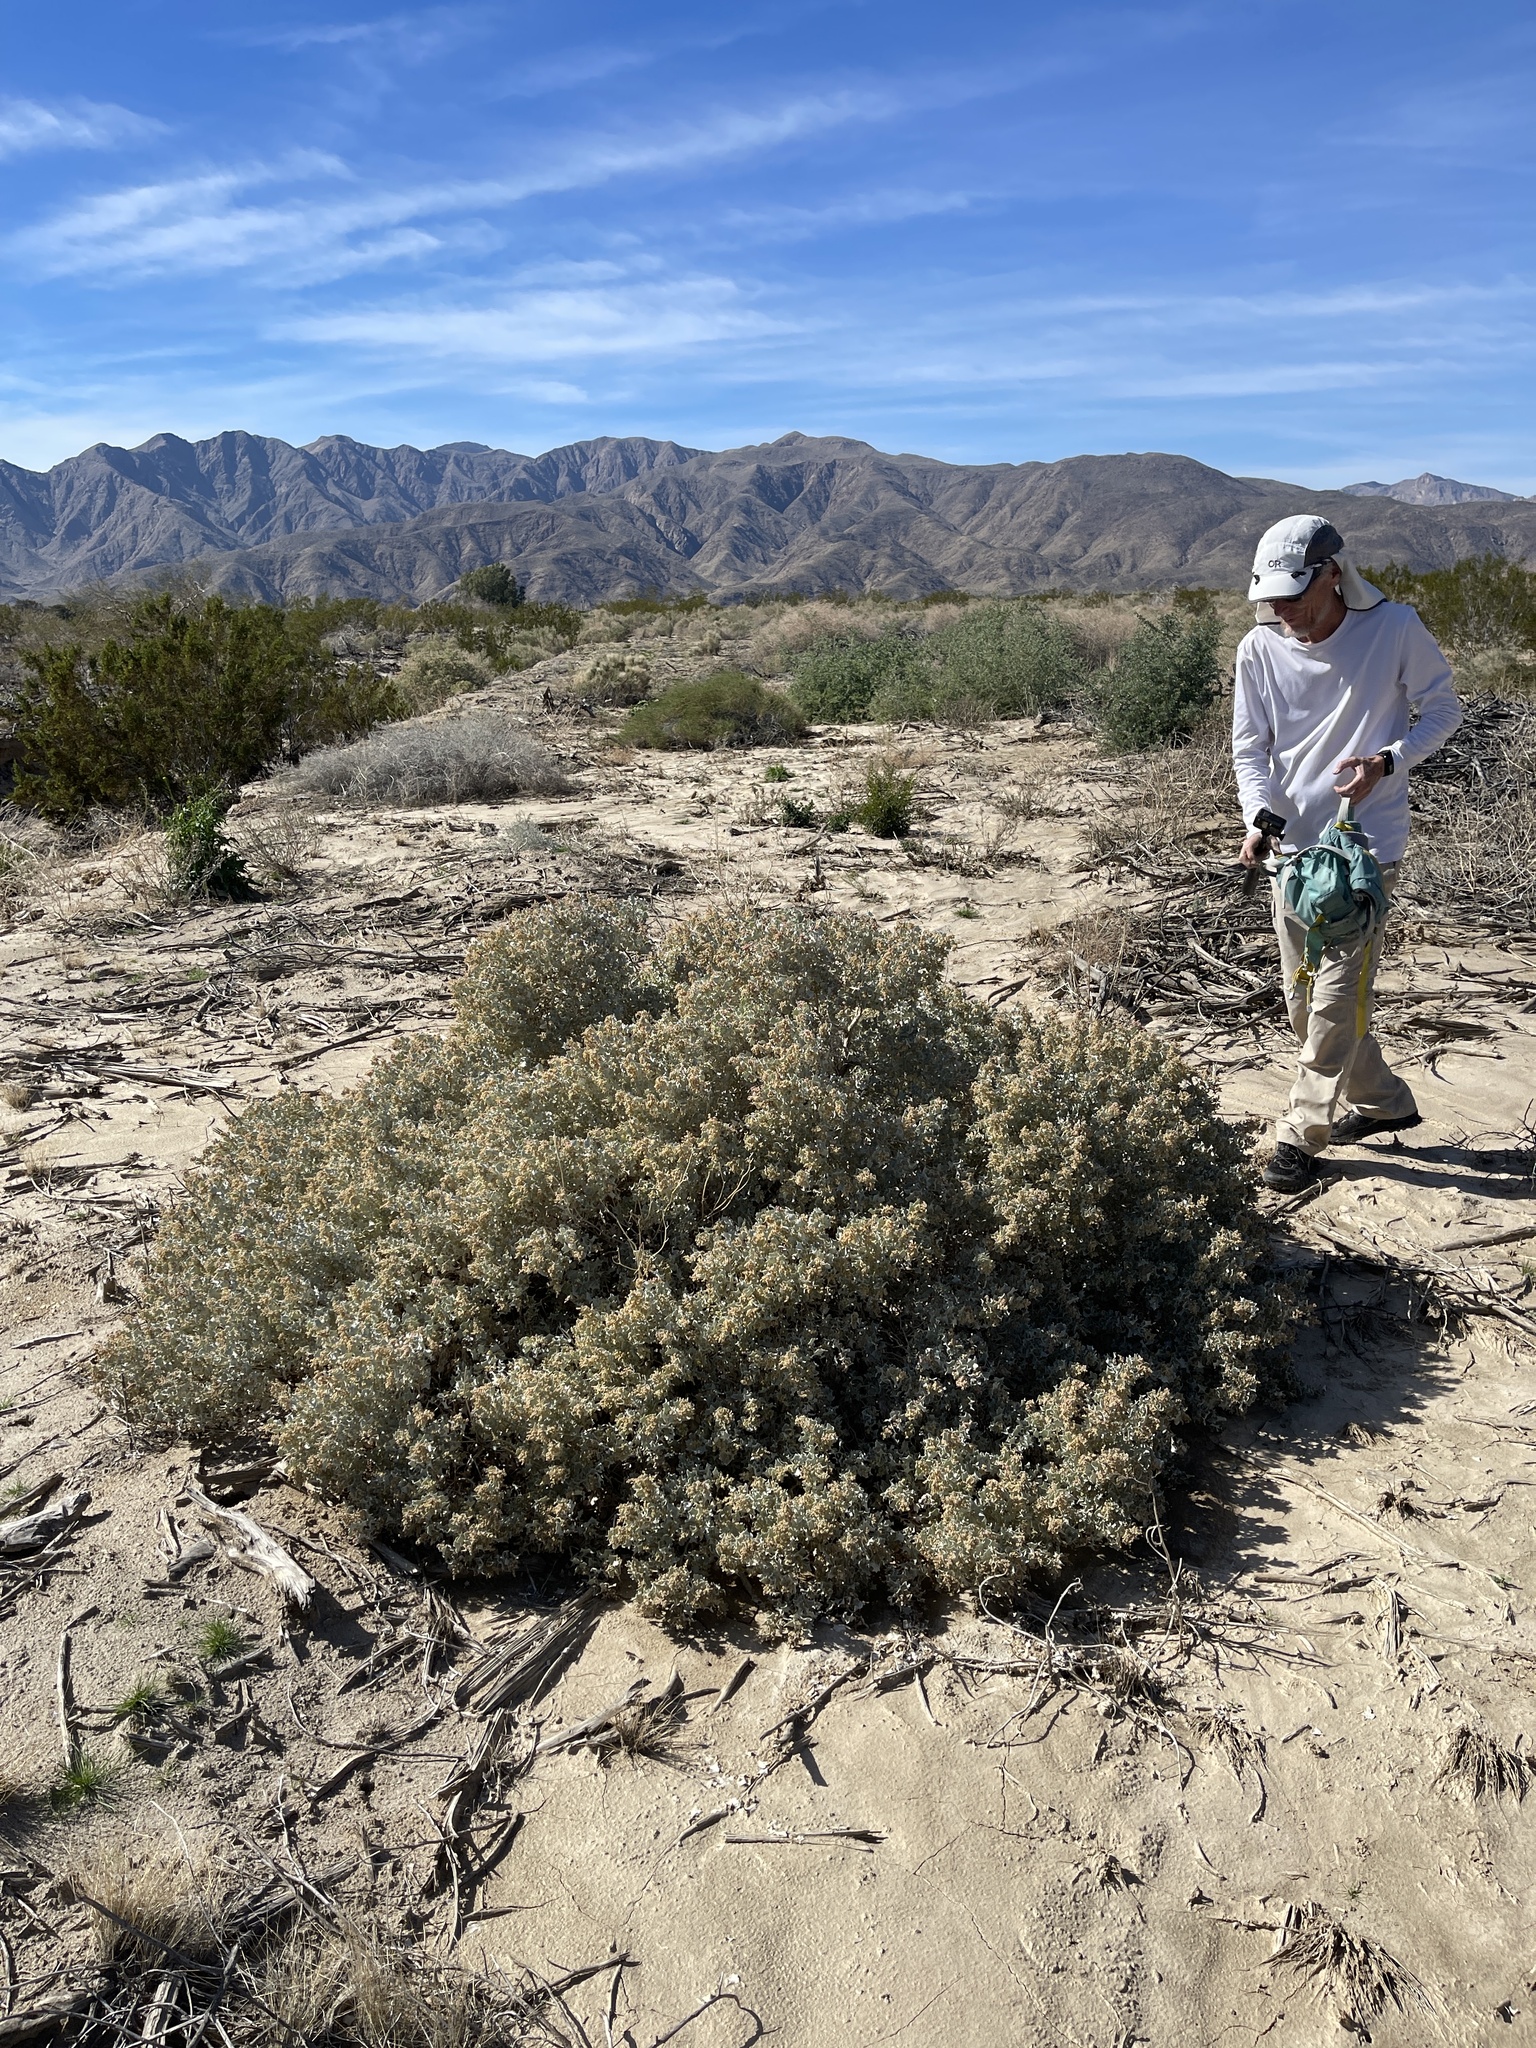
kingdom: Plantae
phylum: Tracheophyta
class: Magnoliopsida
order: Caryophyllales
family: Amaranthaceae
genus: Atriplex
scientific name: Atriplex hymenelytra
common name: Desert-holly
